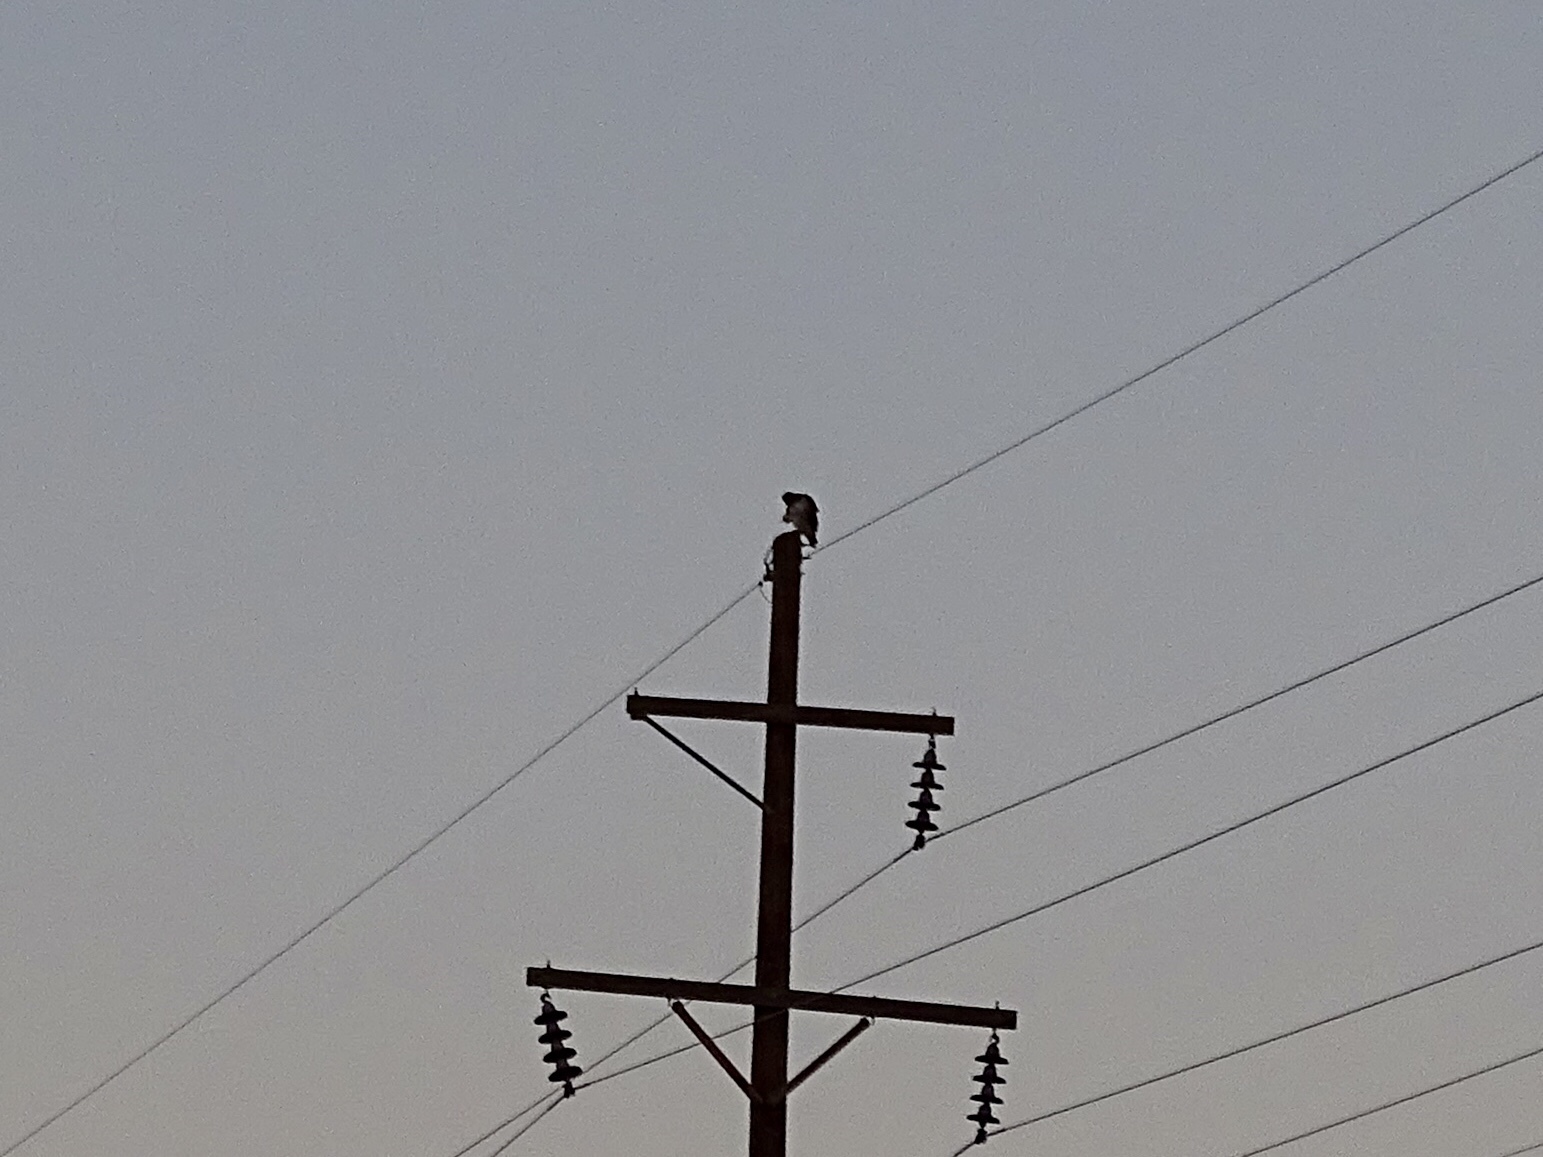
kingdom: Animalia
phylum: Chordata
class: Aves
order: Accipitriformes
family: Accipitridae
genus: Buteo
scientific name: Buteo jamaicensis
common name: Red-tailed hawk
